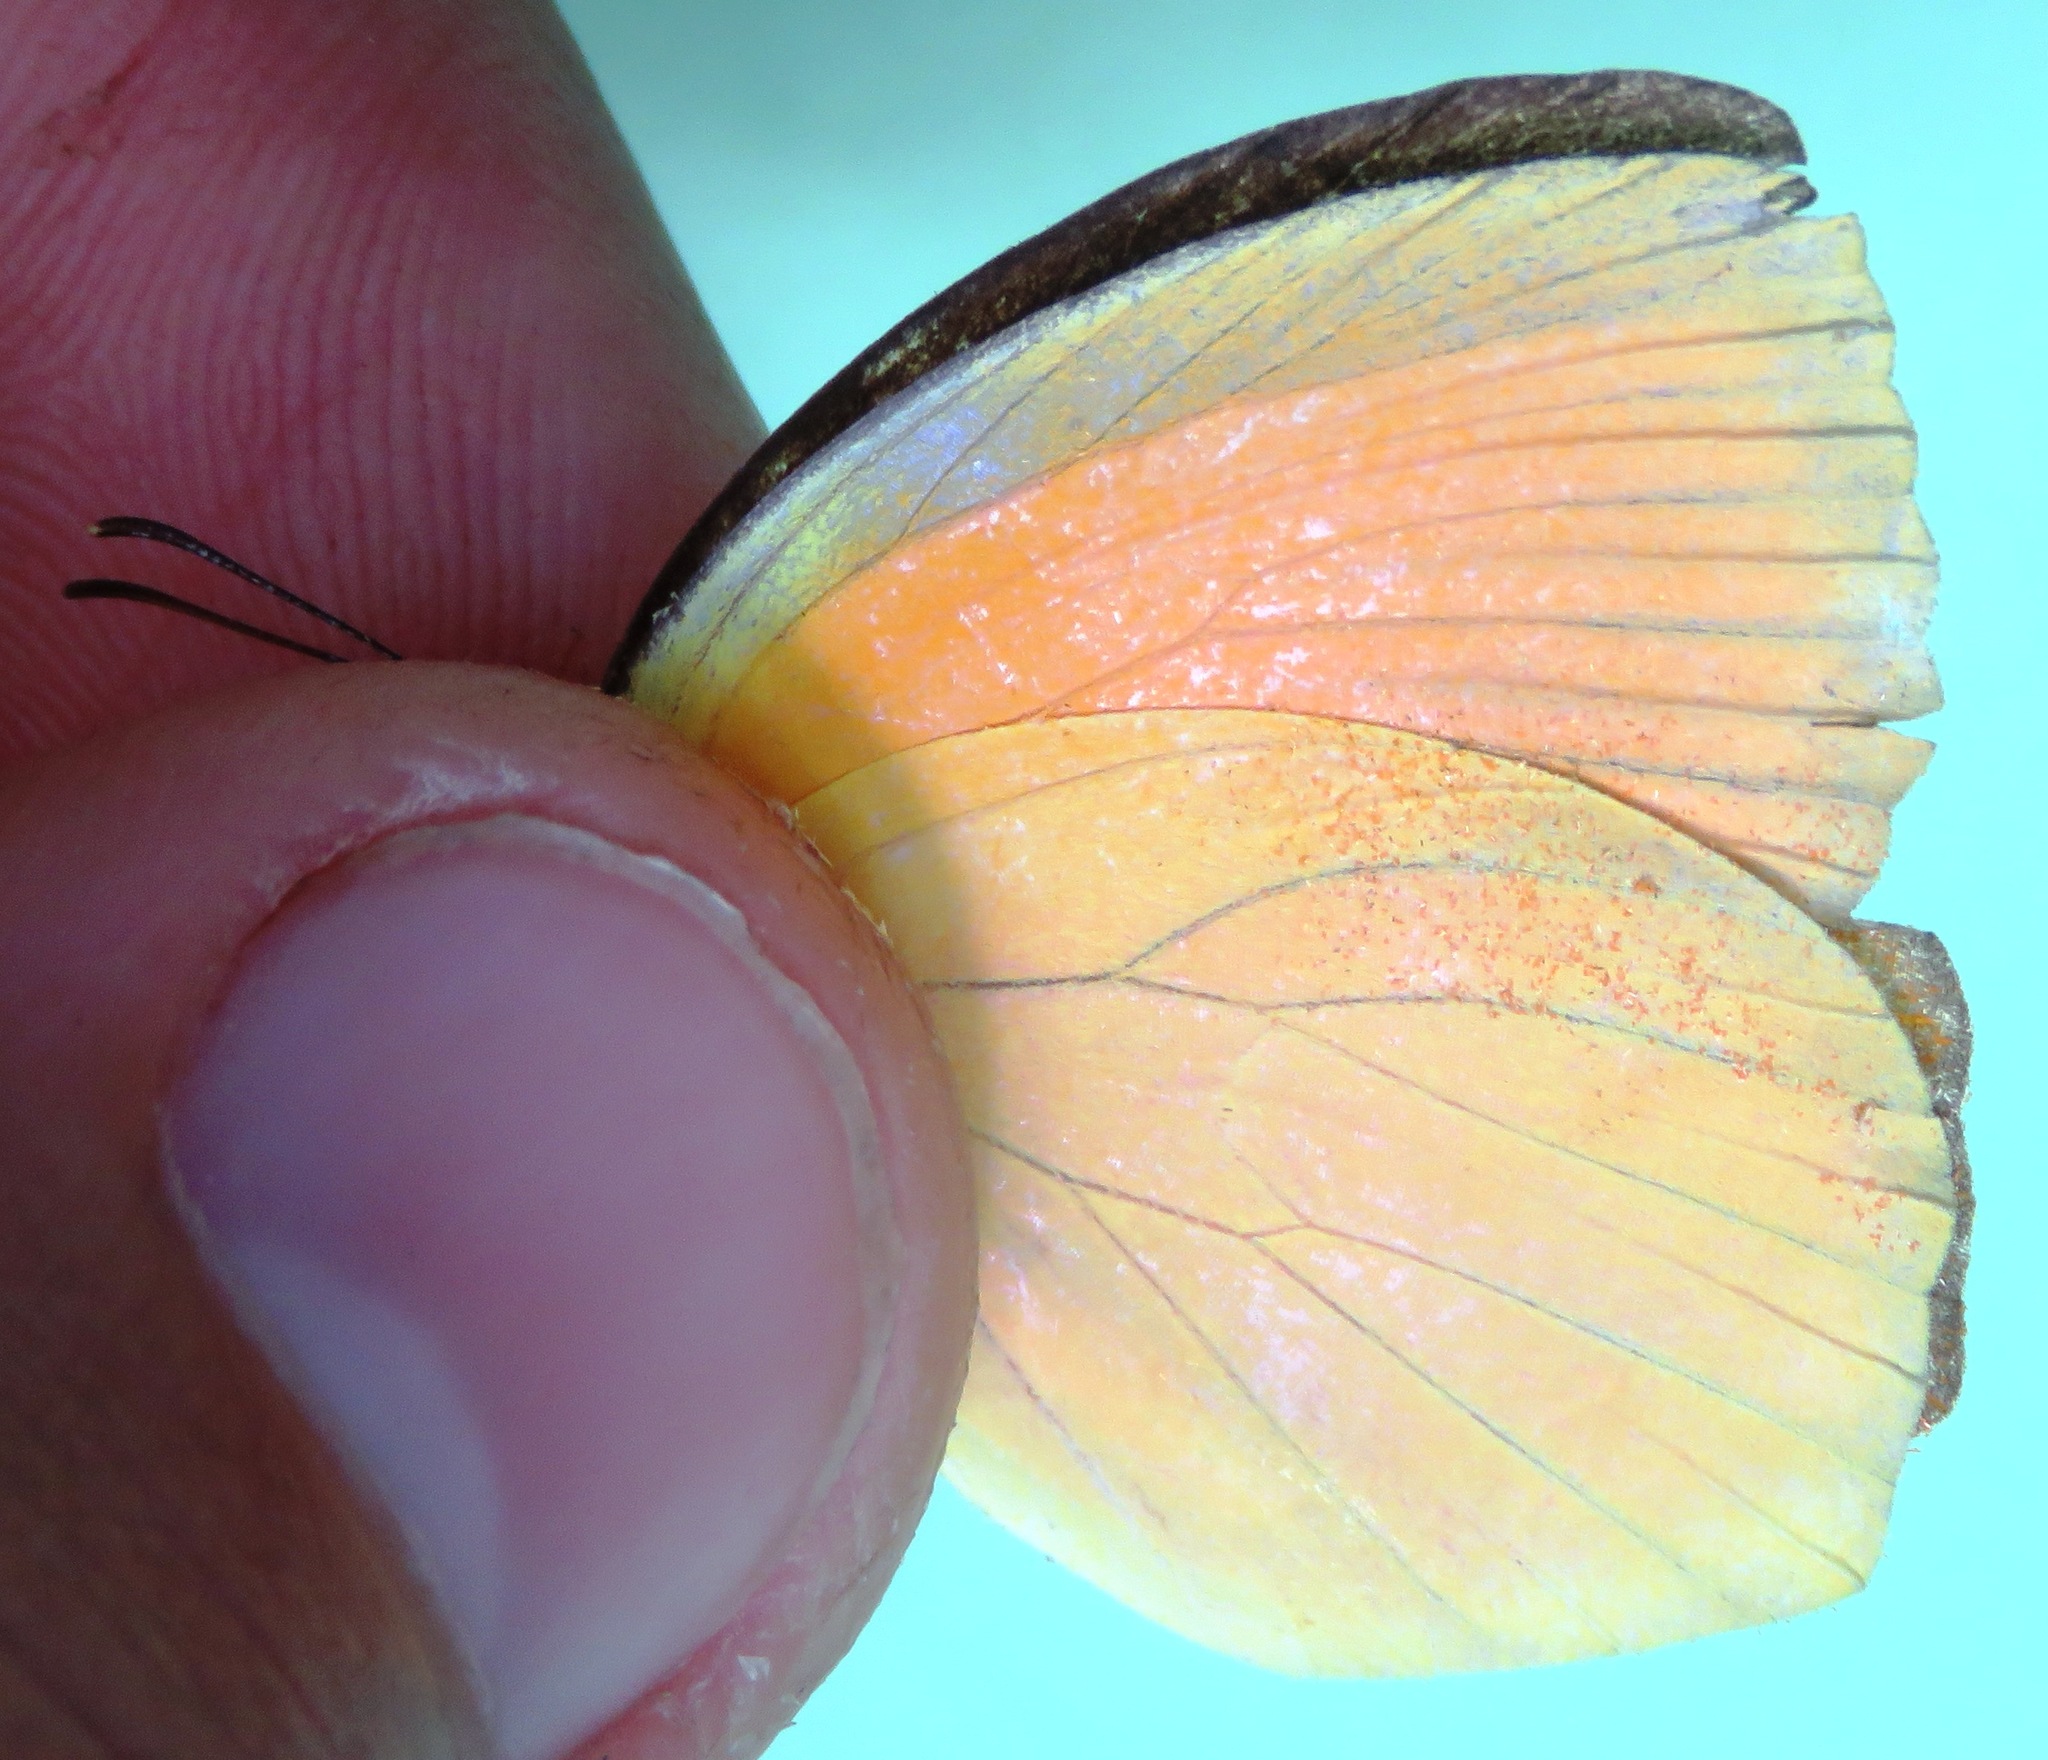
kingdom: Animalia
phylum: Arthropoda
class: Insecta
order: Lepidoptera
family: Pieridae
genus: Pyrisitia
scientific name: Pyrisitia proterpia
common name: Tailed orange
